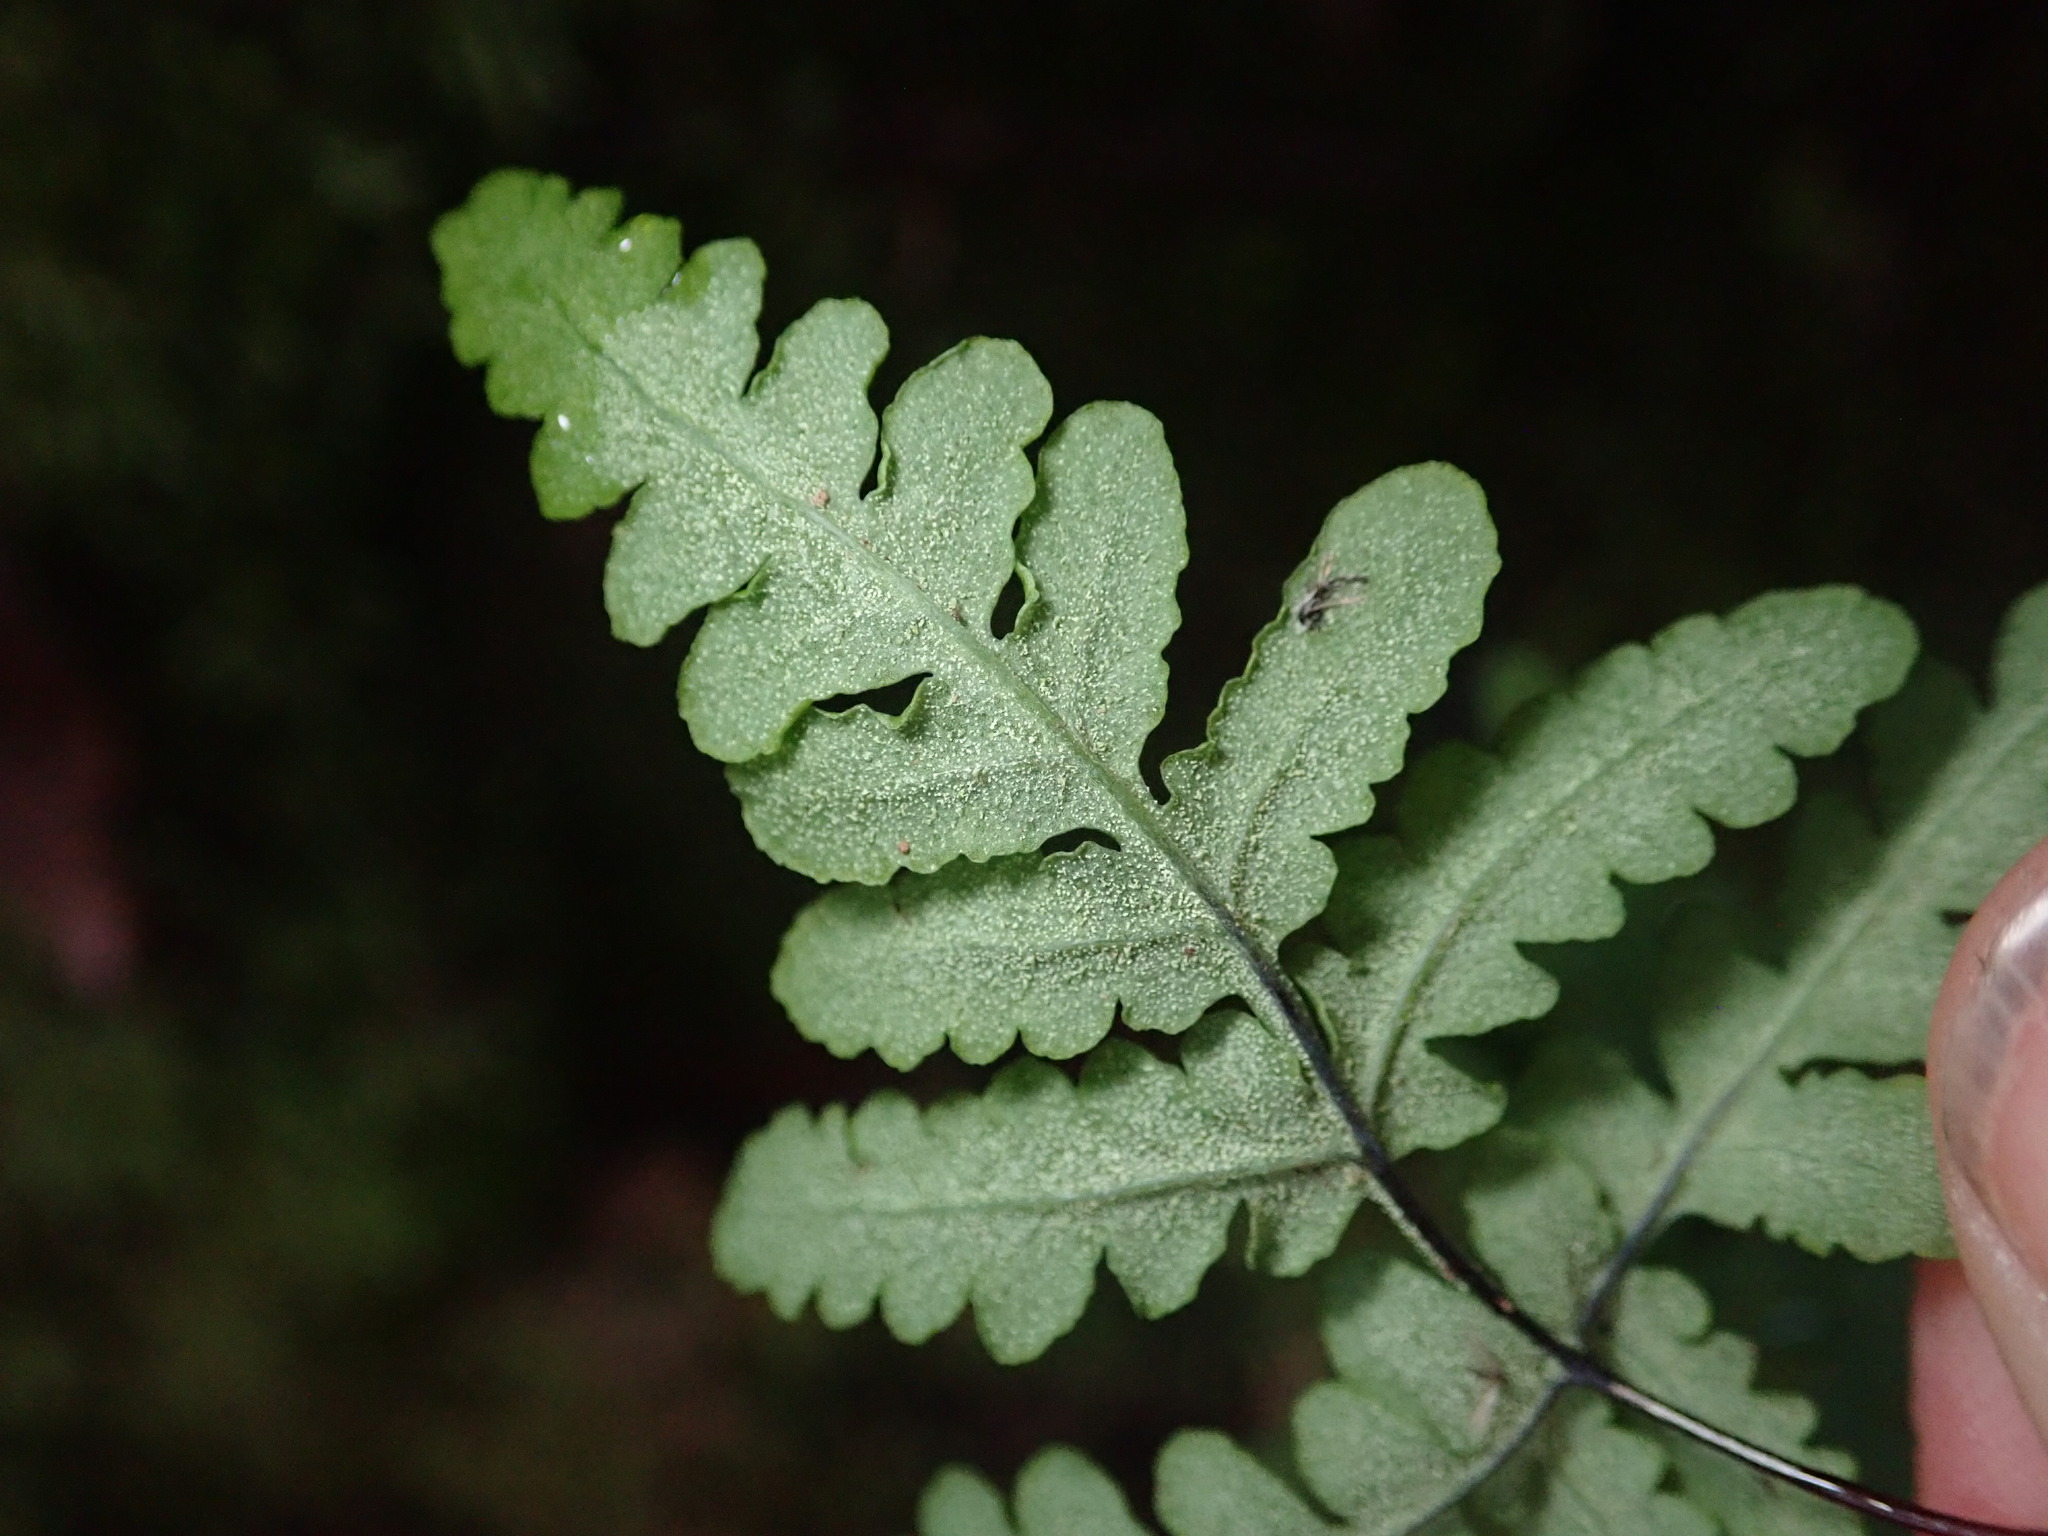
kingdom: Plantae
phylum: Tracheophyta
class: Polypodiopsida
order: Polypodiales
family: Pteridaceae
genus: Pentagramma
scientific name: Pentagramma triangularis
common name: Gold fern
